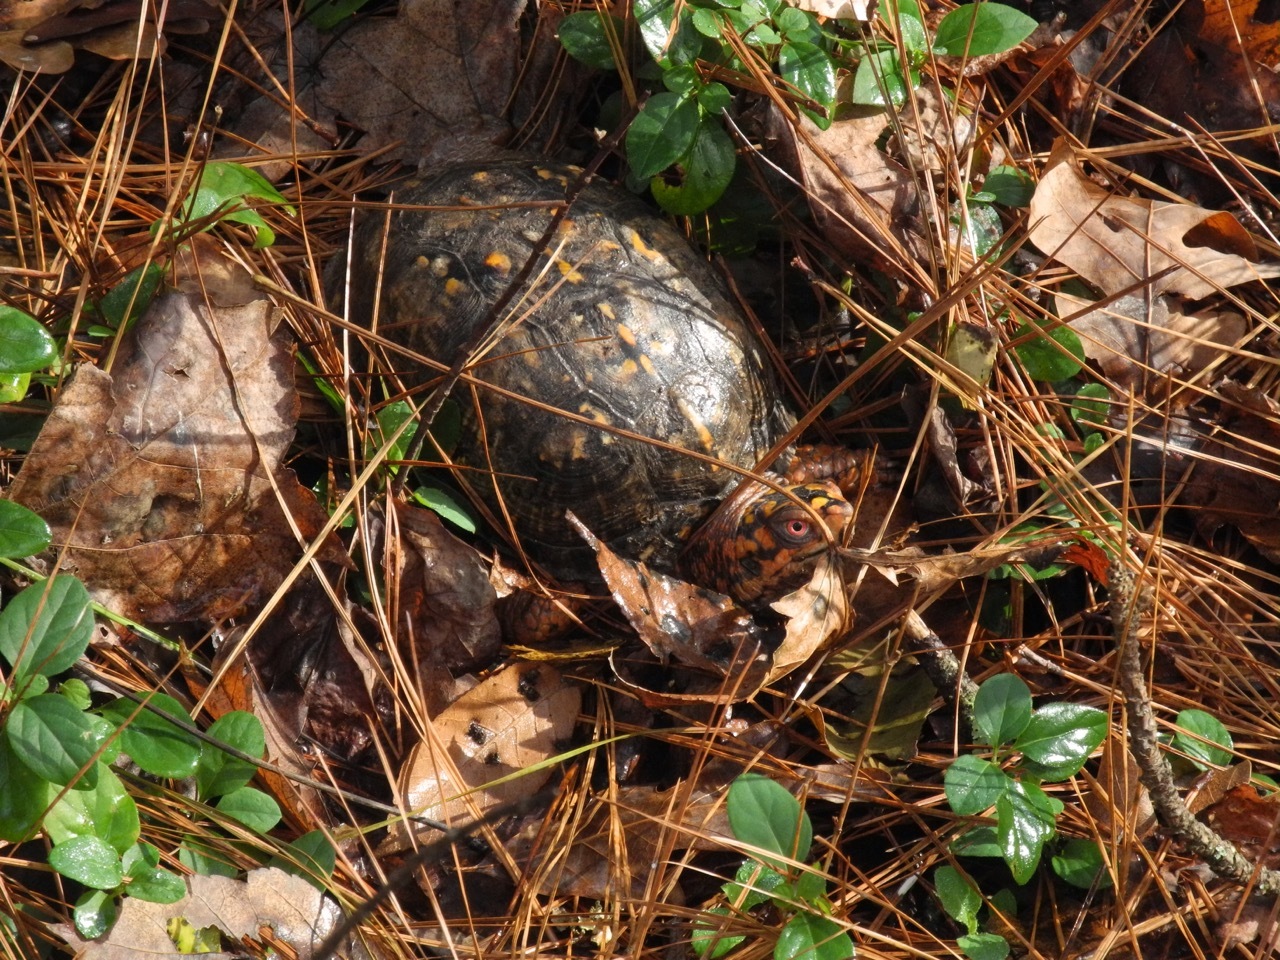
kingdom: Animalia
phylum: Chordata
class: Testudines
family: Emydidae
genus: Terrapene
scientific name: Terrapene carolina
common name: Common box turtle
